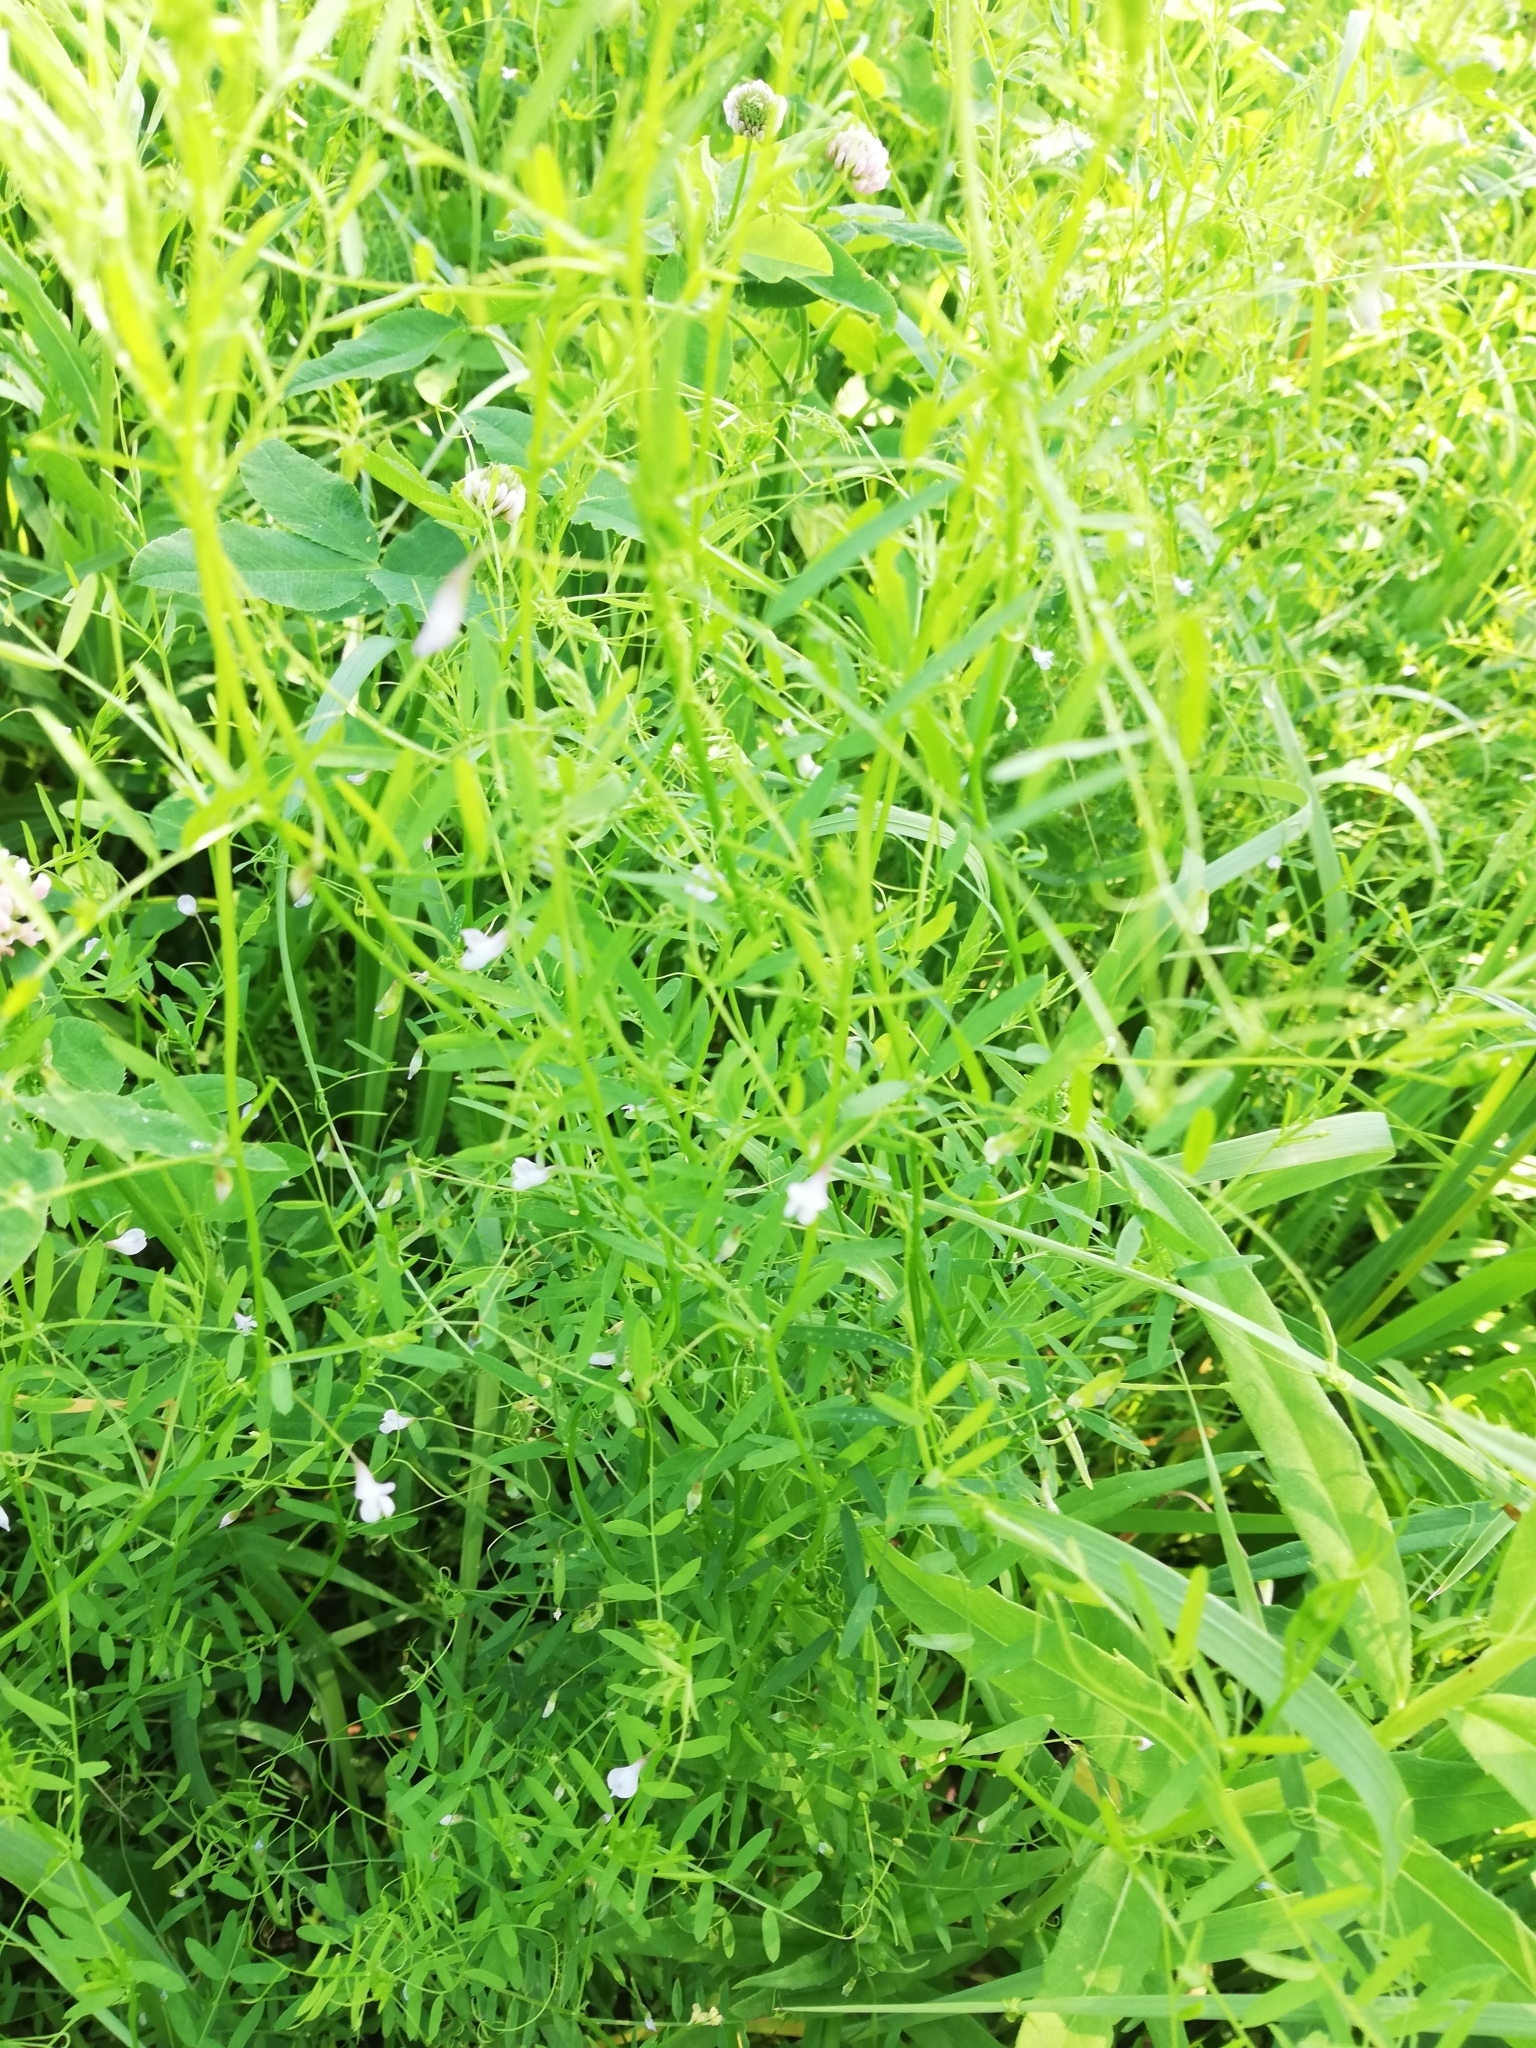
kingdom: Plantae
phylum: Tracheophyta
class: Magnoliopsida
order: Fabales
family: Fabaceae
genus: Vicia
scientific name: Vicia tetrasperma
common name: Smooth tare
